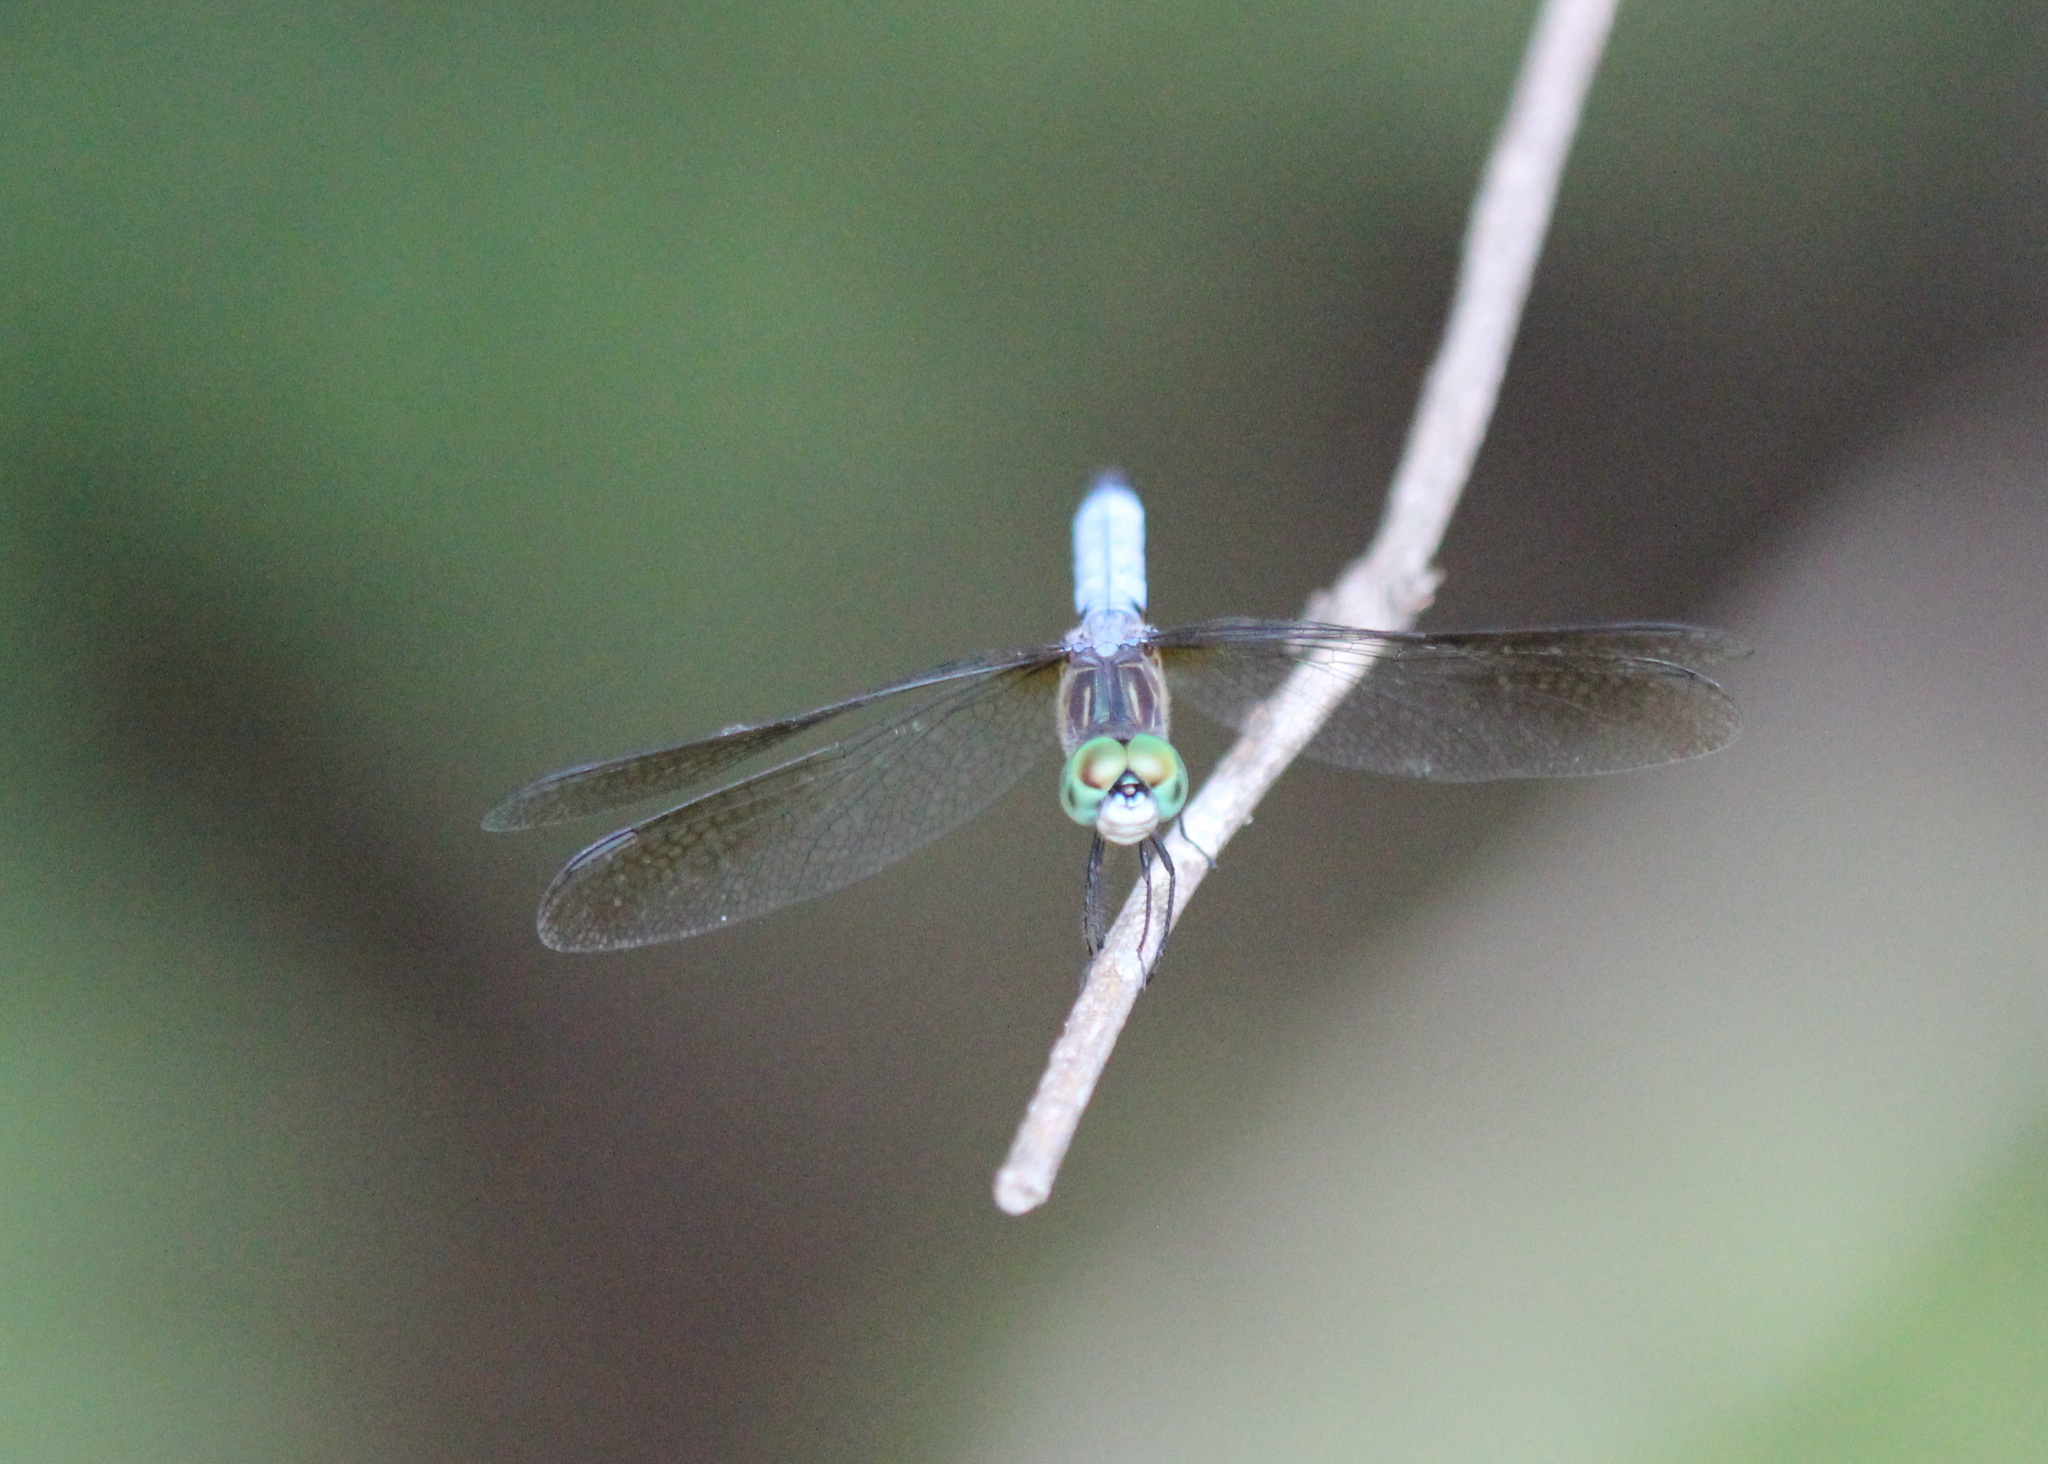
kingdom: Animalia
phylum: Arthropoda
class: Insecta
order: Odonata
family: Libellulidae
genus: Pachydiplax
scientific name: Pachydiplax longipennis
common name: Blue dasher
